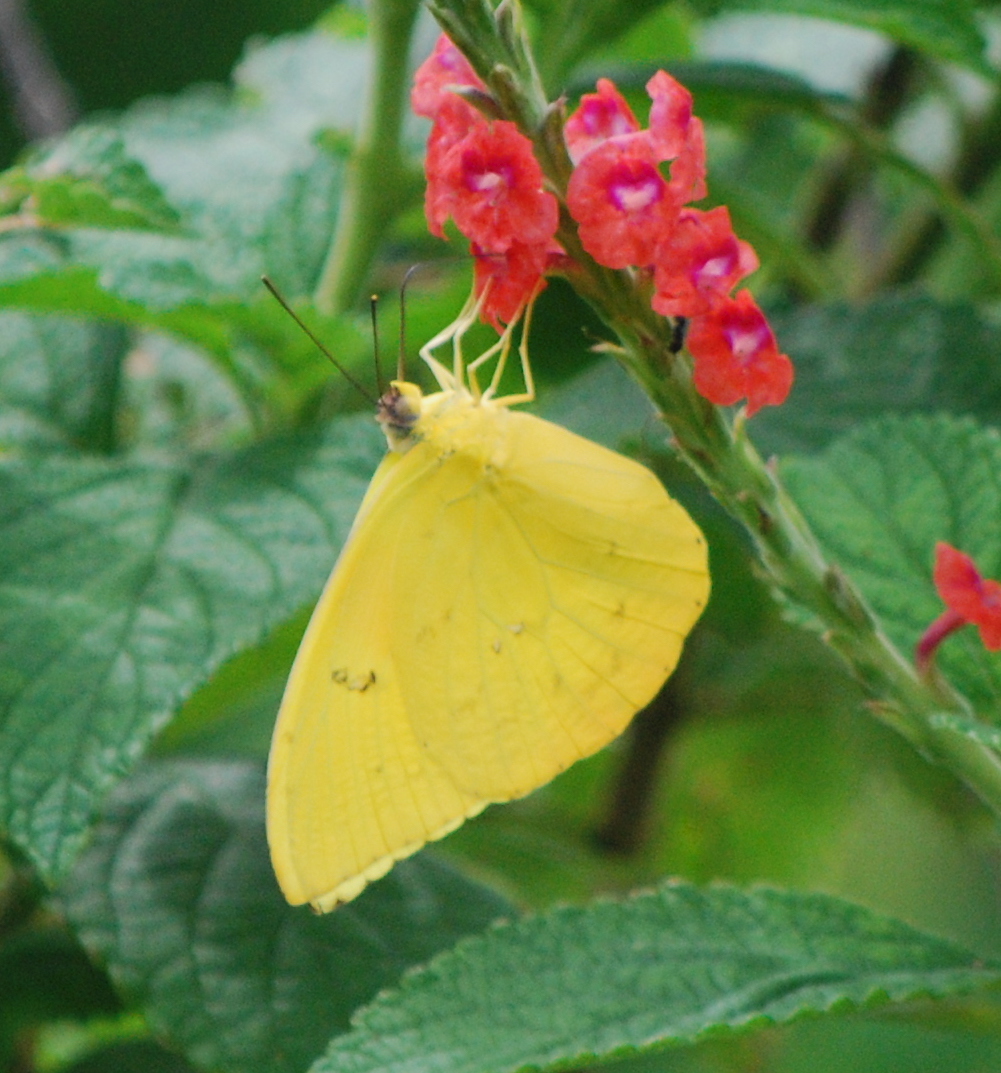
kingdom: Animalia
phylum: Arthropoda
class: Insecta
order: Lepidoptera
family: Pieridae
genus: Phoebis
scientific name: Phoebis philea
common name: Orange-barred giant sulphur
